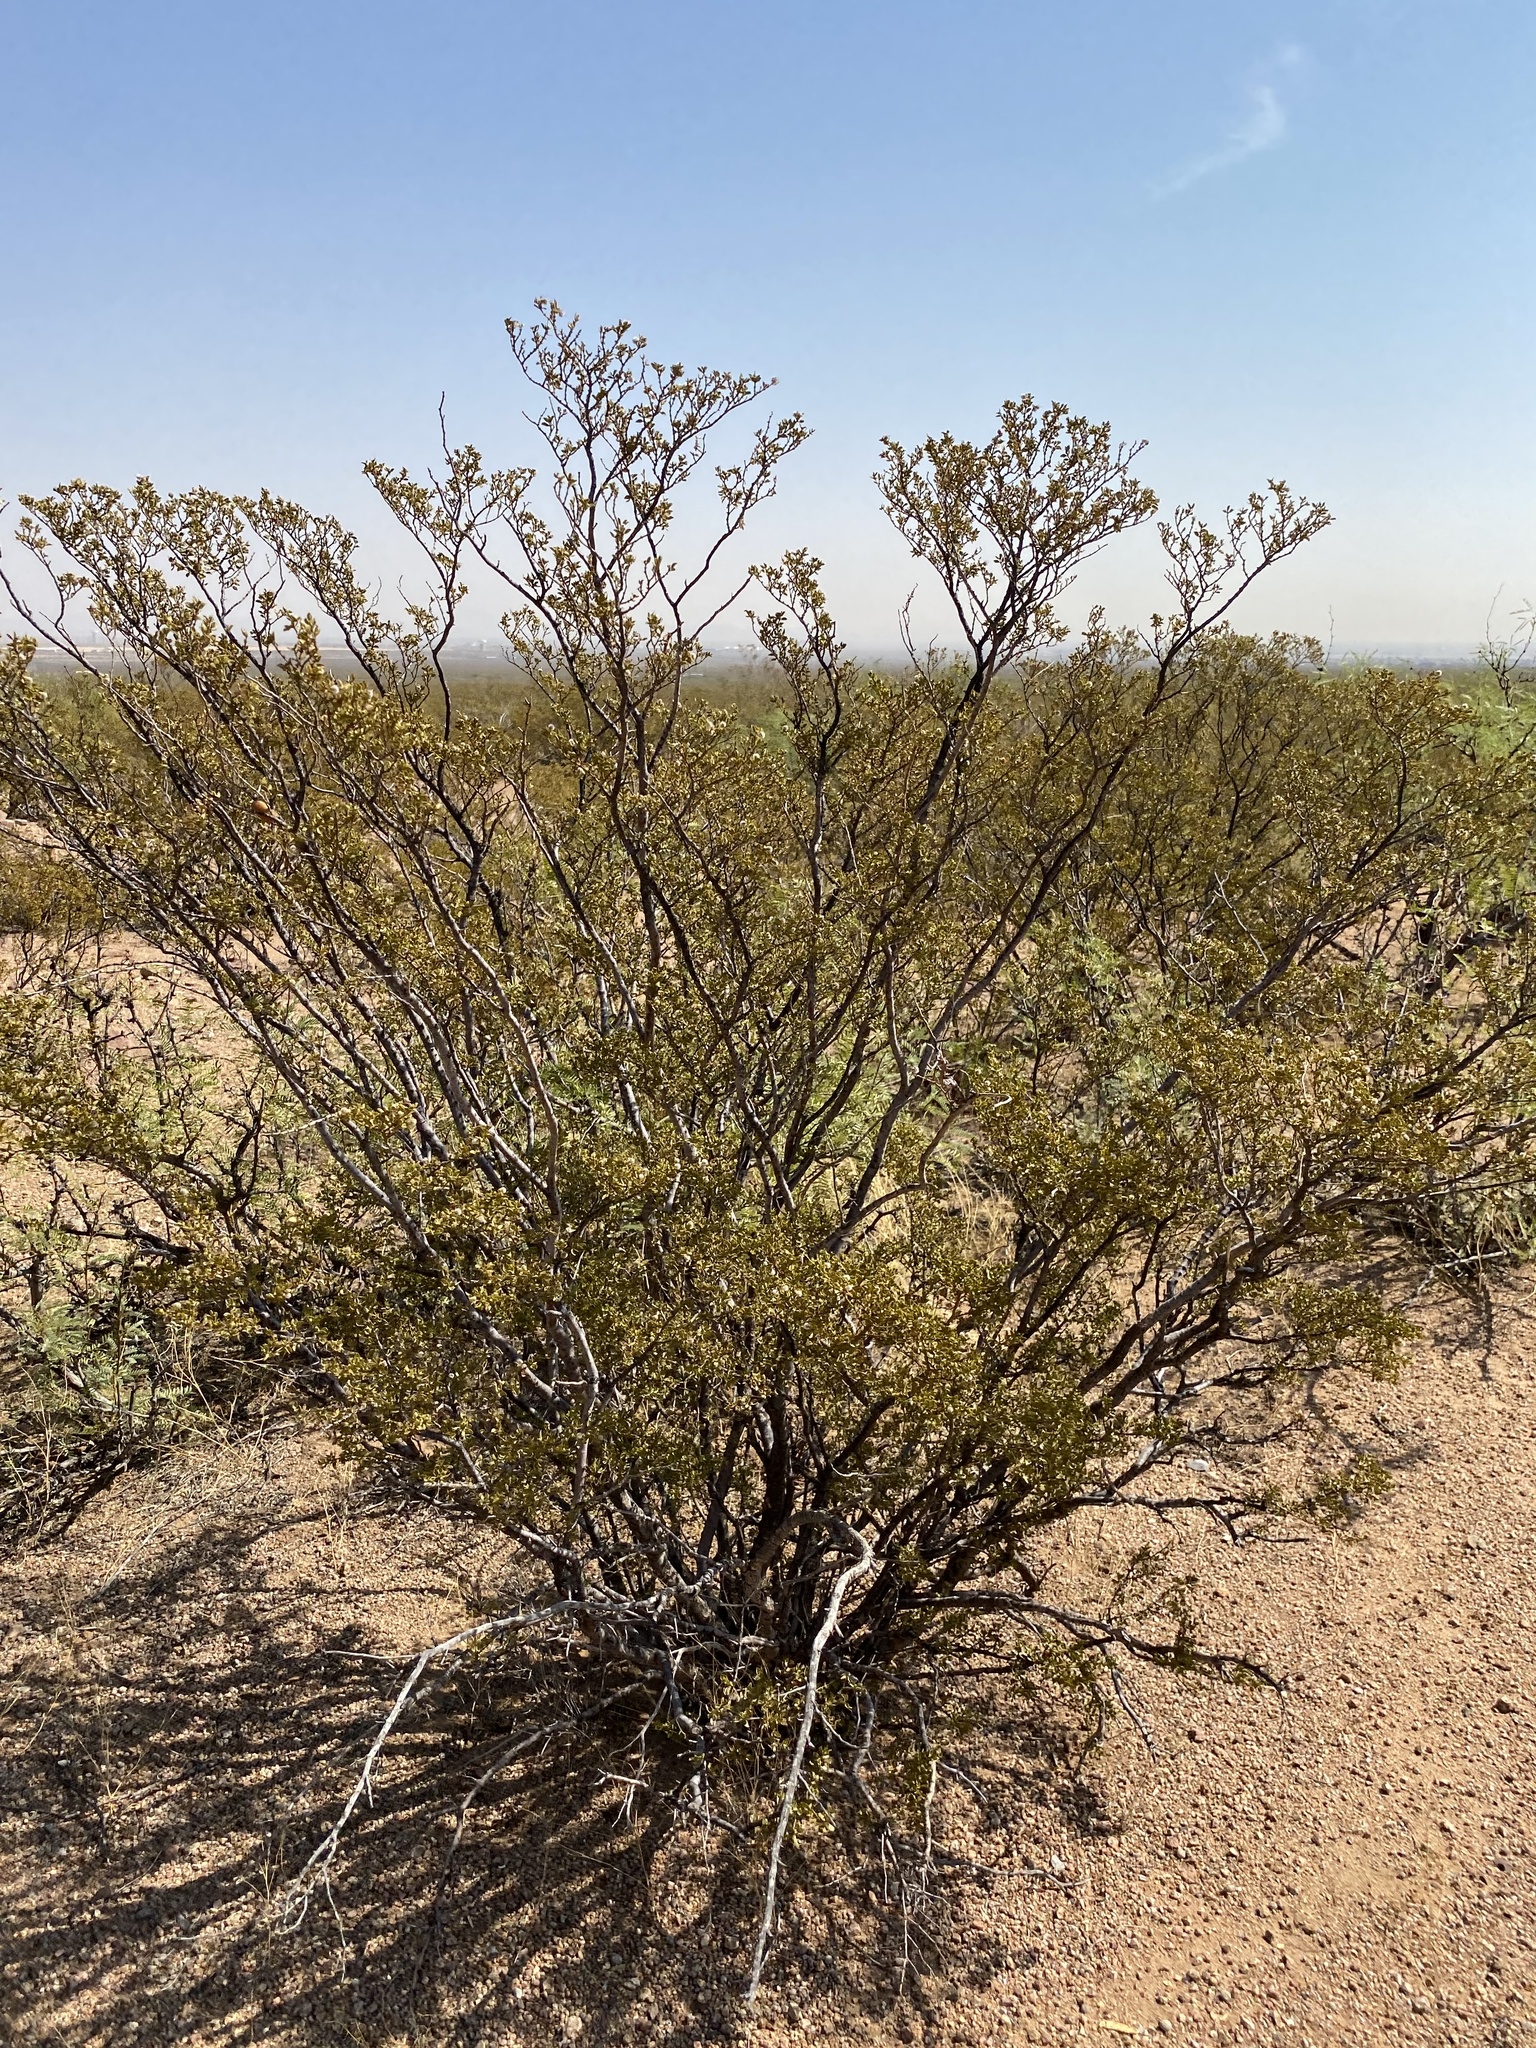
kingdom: Plantae
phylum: Tracheophyta
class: Magnoliopsida
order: Zygophyllales
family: Zygophyllaceae
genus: Larrea
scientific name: Larrea tridentata
